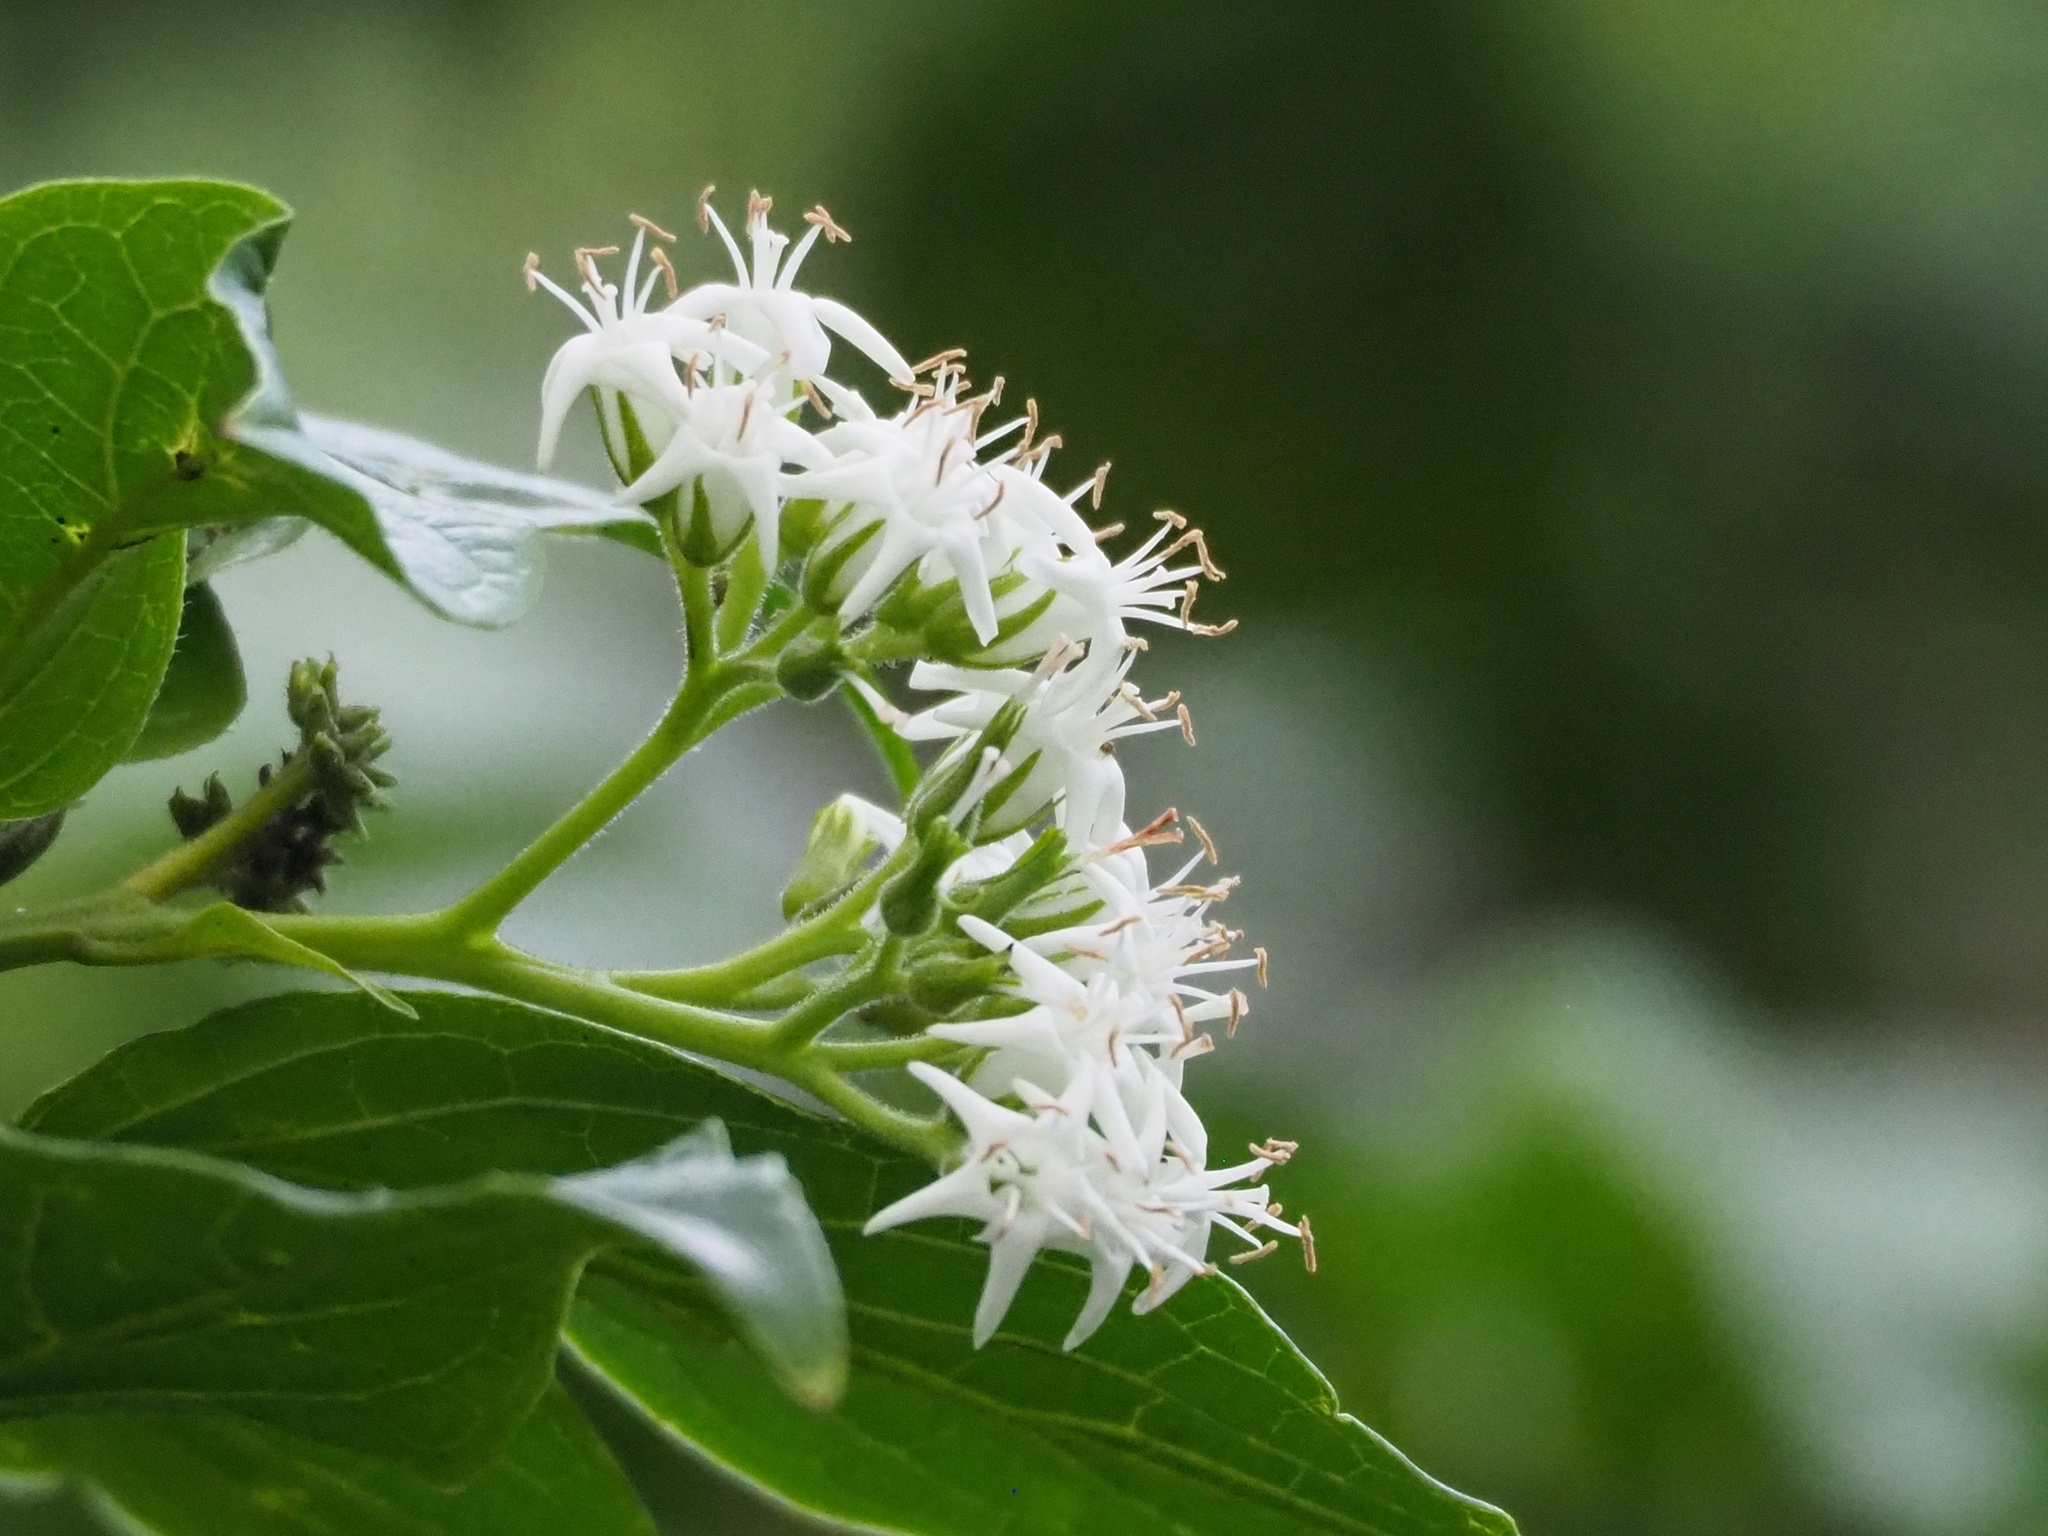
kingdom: Plantae
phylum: Tracheophyta
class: Magnoliopsida
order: Boraginales
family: Ehretiaceae
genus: Ehretia
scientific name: Ehretia resinosa
